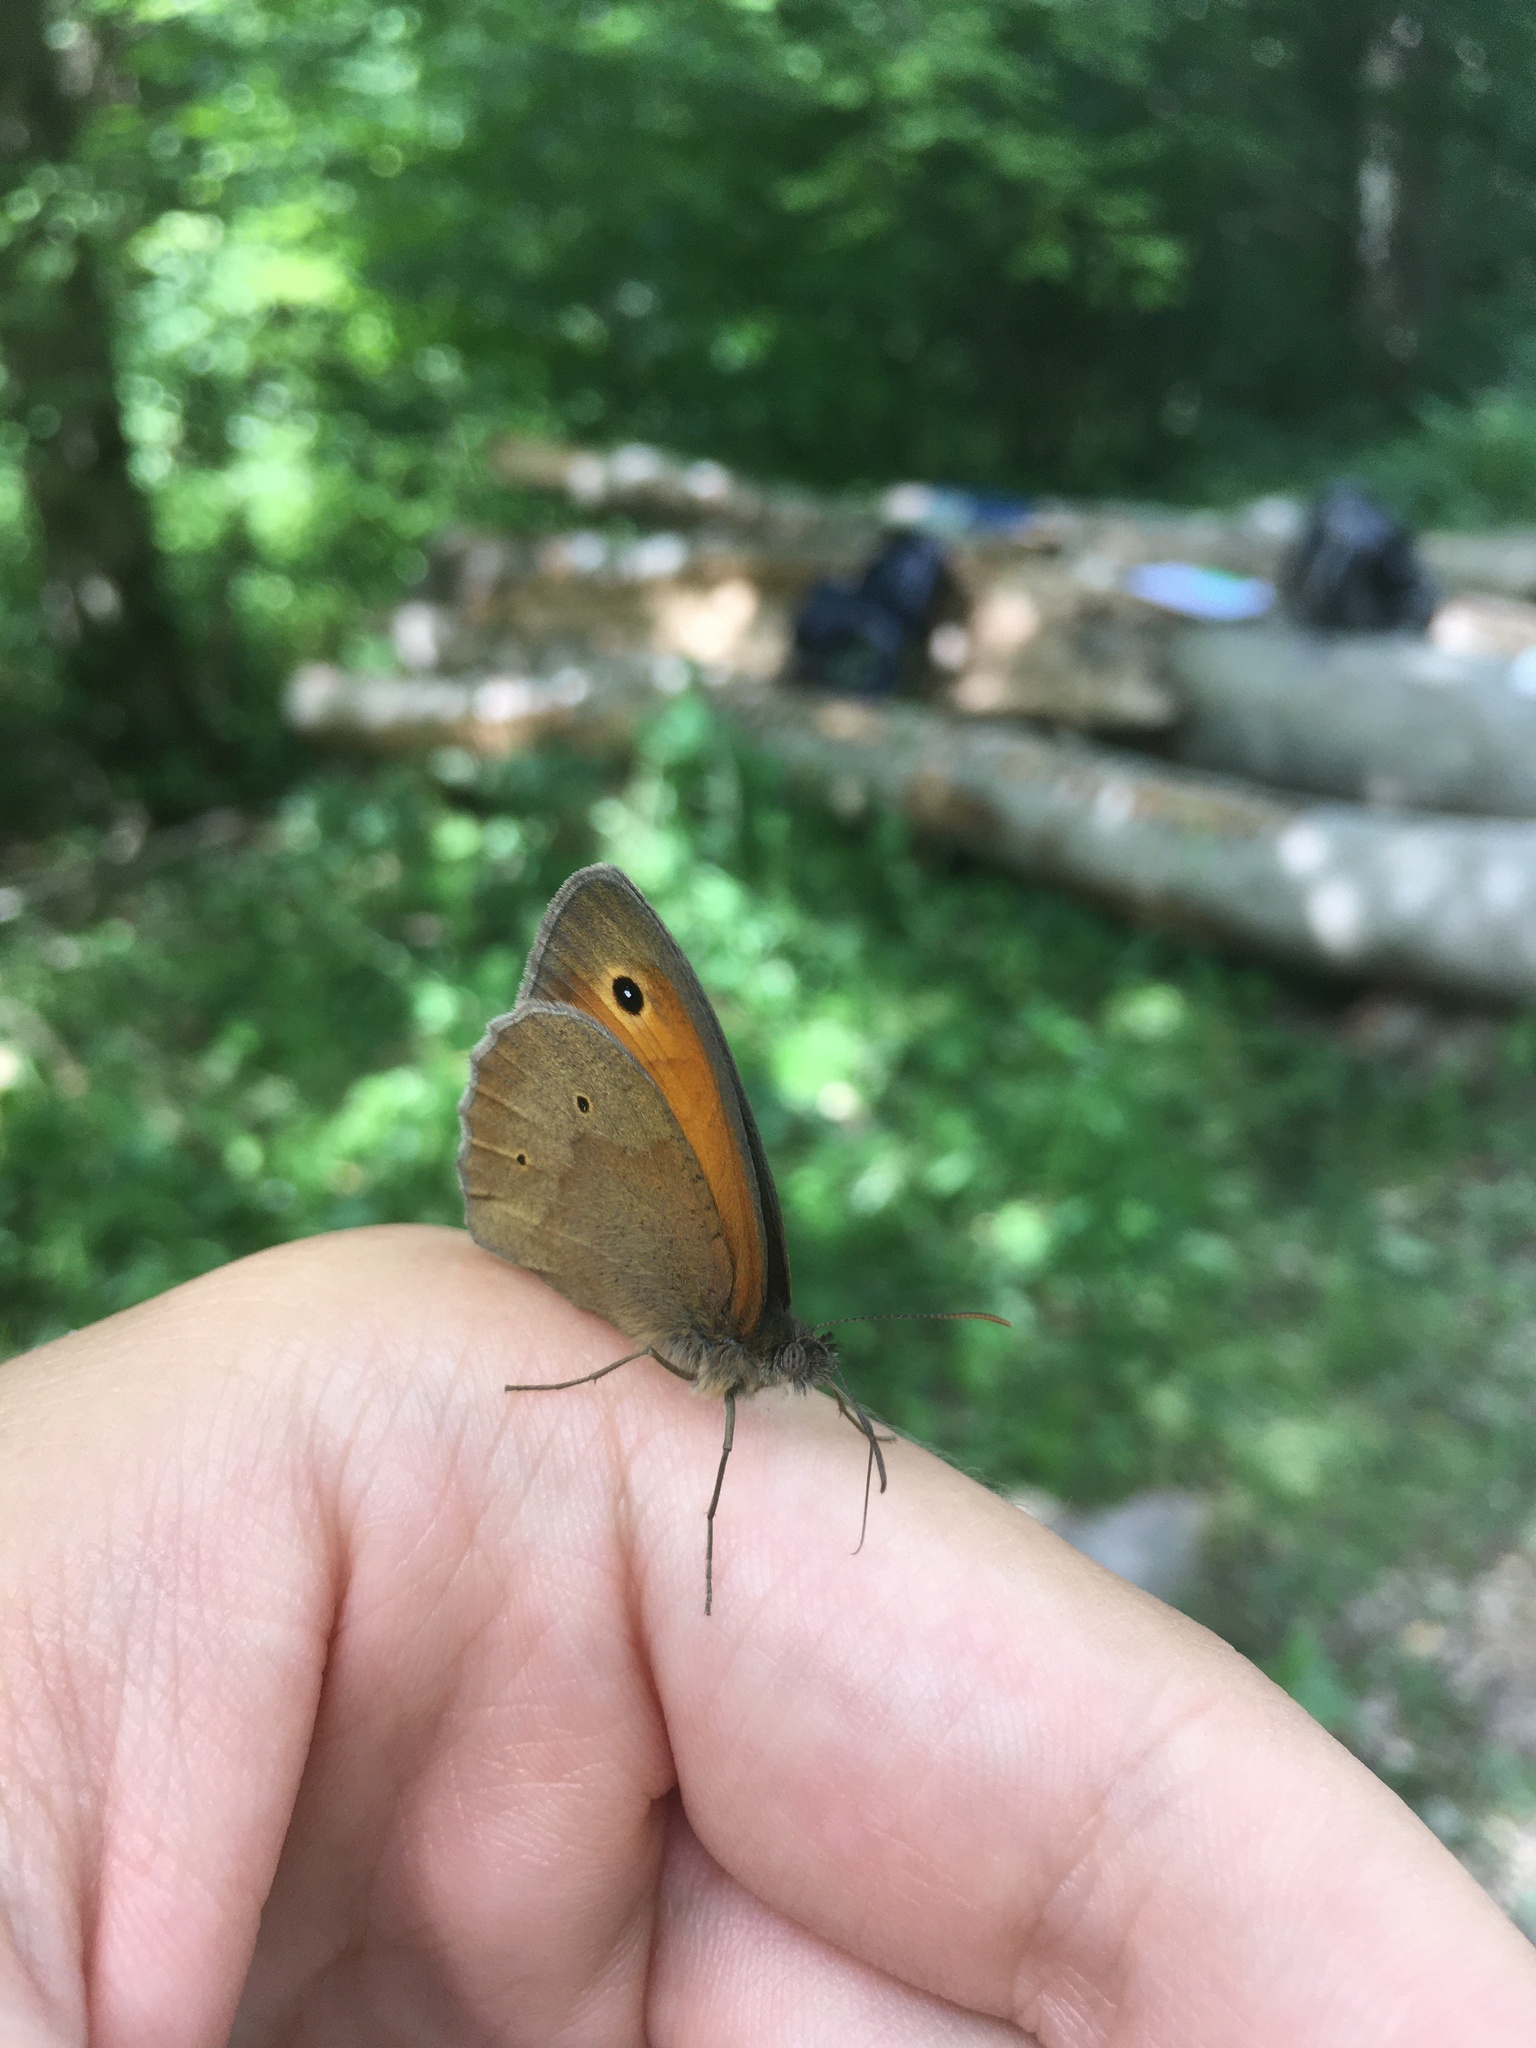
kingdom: Animalia
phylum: Arthropoda
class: Insecta
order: Lepidoptera
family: Nymphalidae
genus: Maniola
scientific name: Maniola jurtina
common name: Meadow brown
